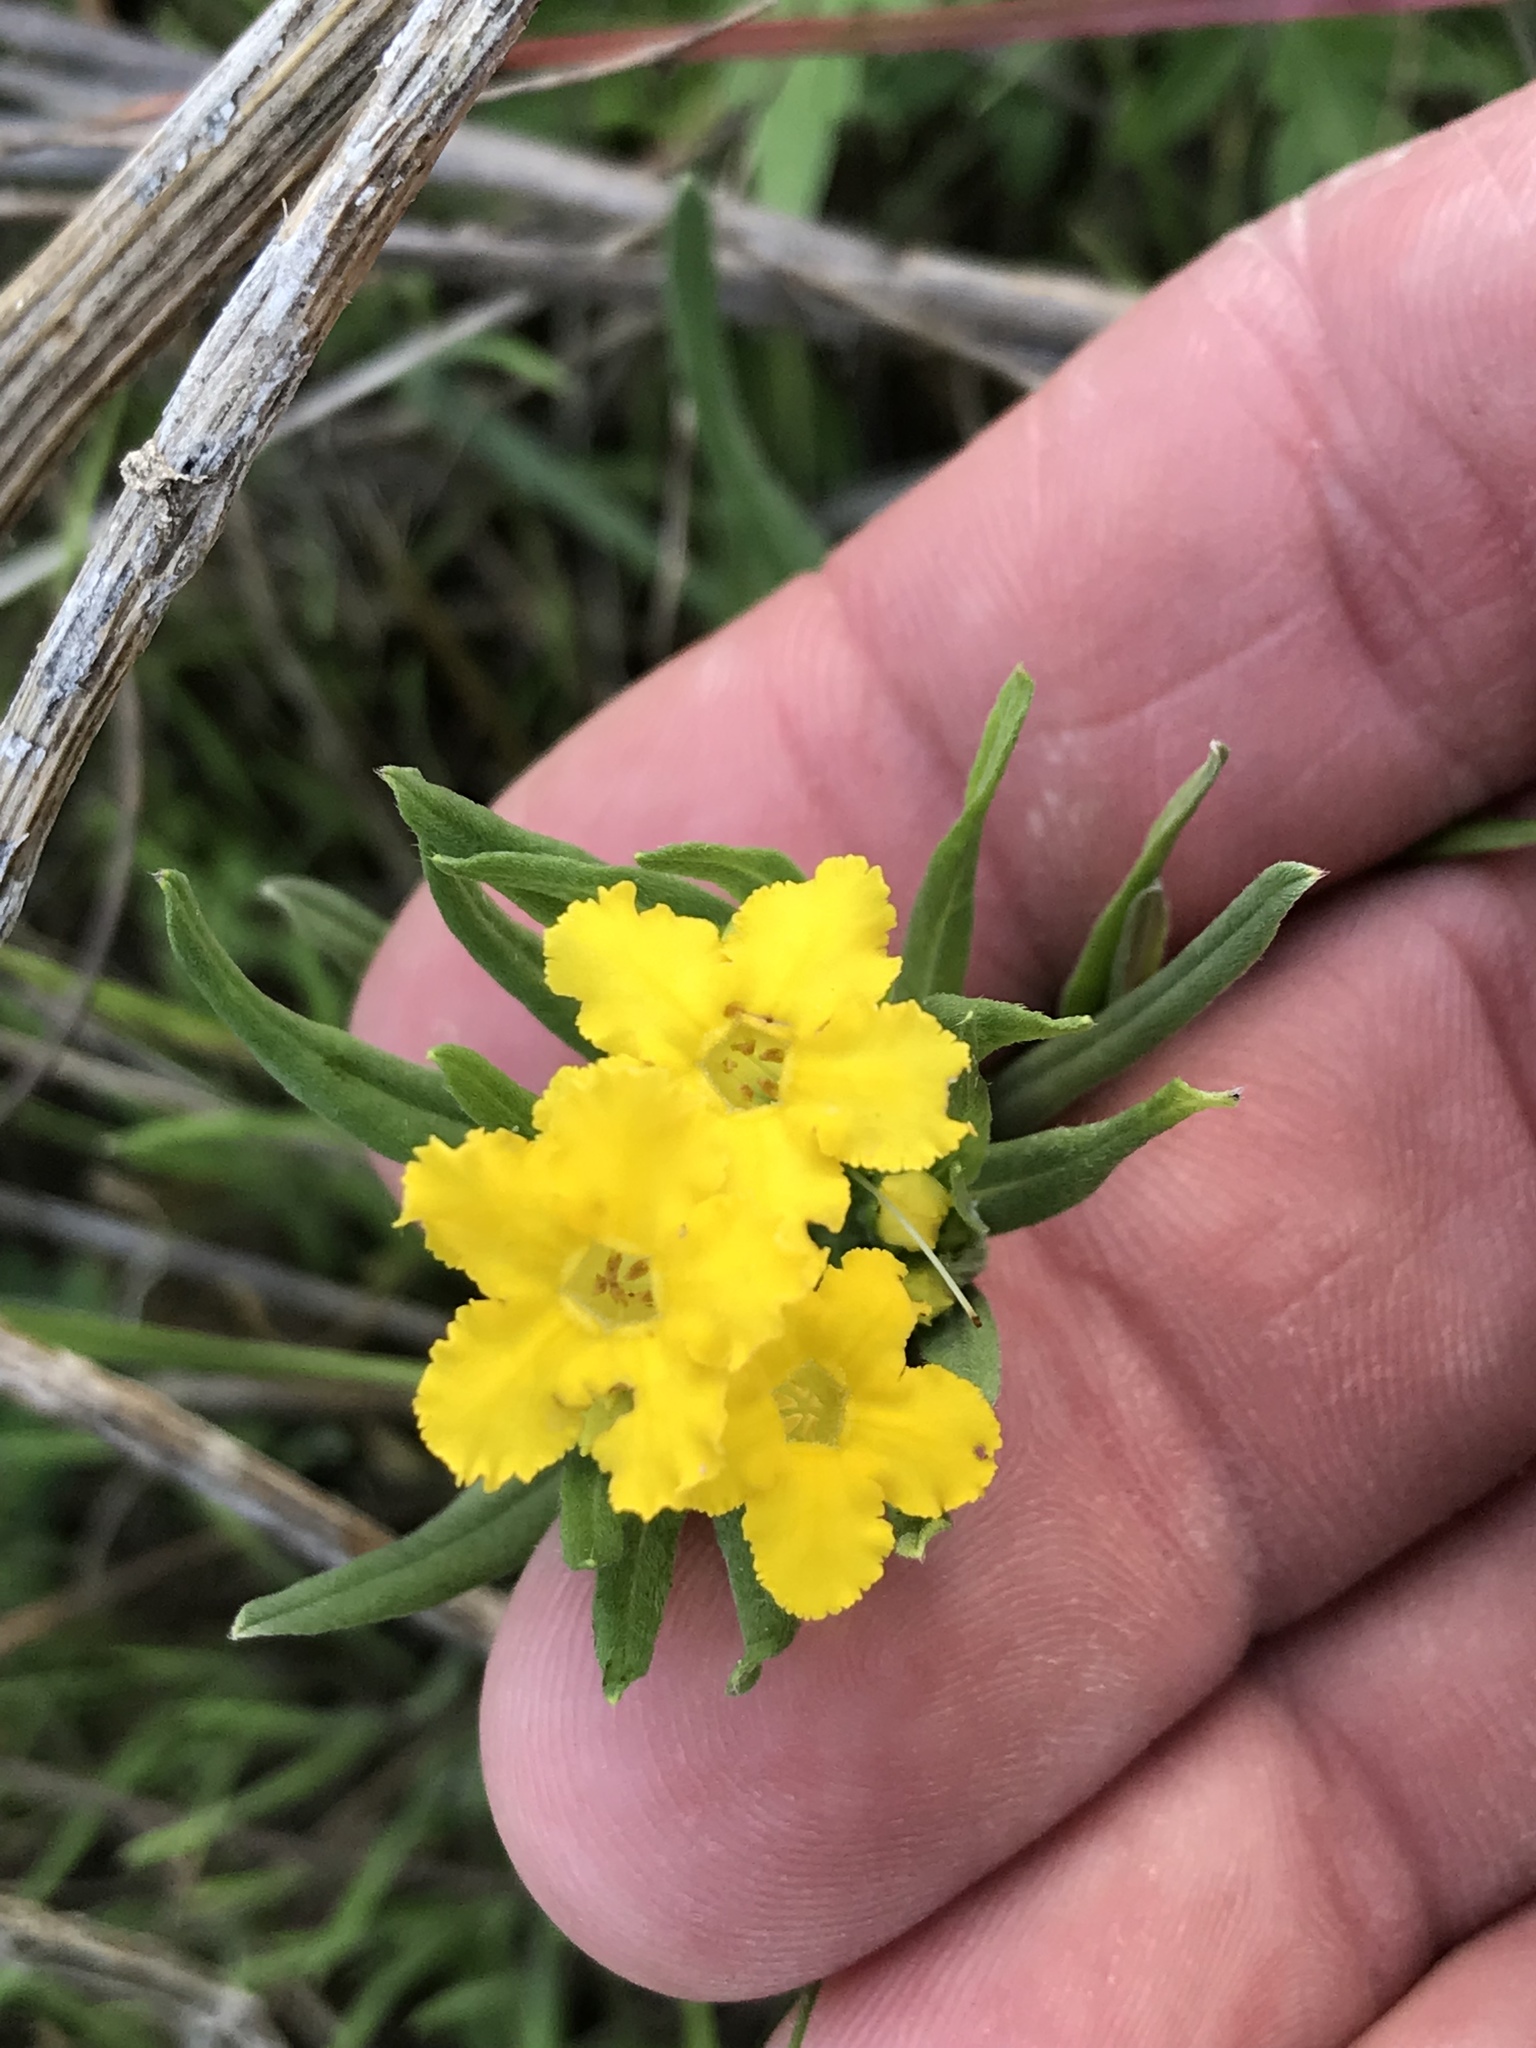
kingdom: Plantae
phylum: Tracheophyta
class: Magnoliopsida
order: Boraginales
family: Boraginaceae
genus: Lithospermum
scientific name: Lithospermum incisum
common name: Fringed gromwell
